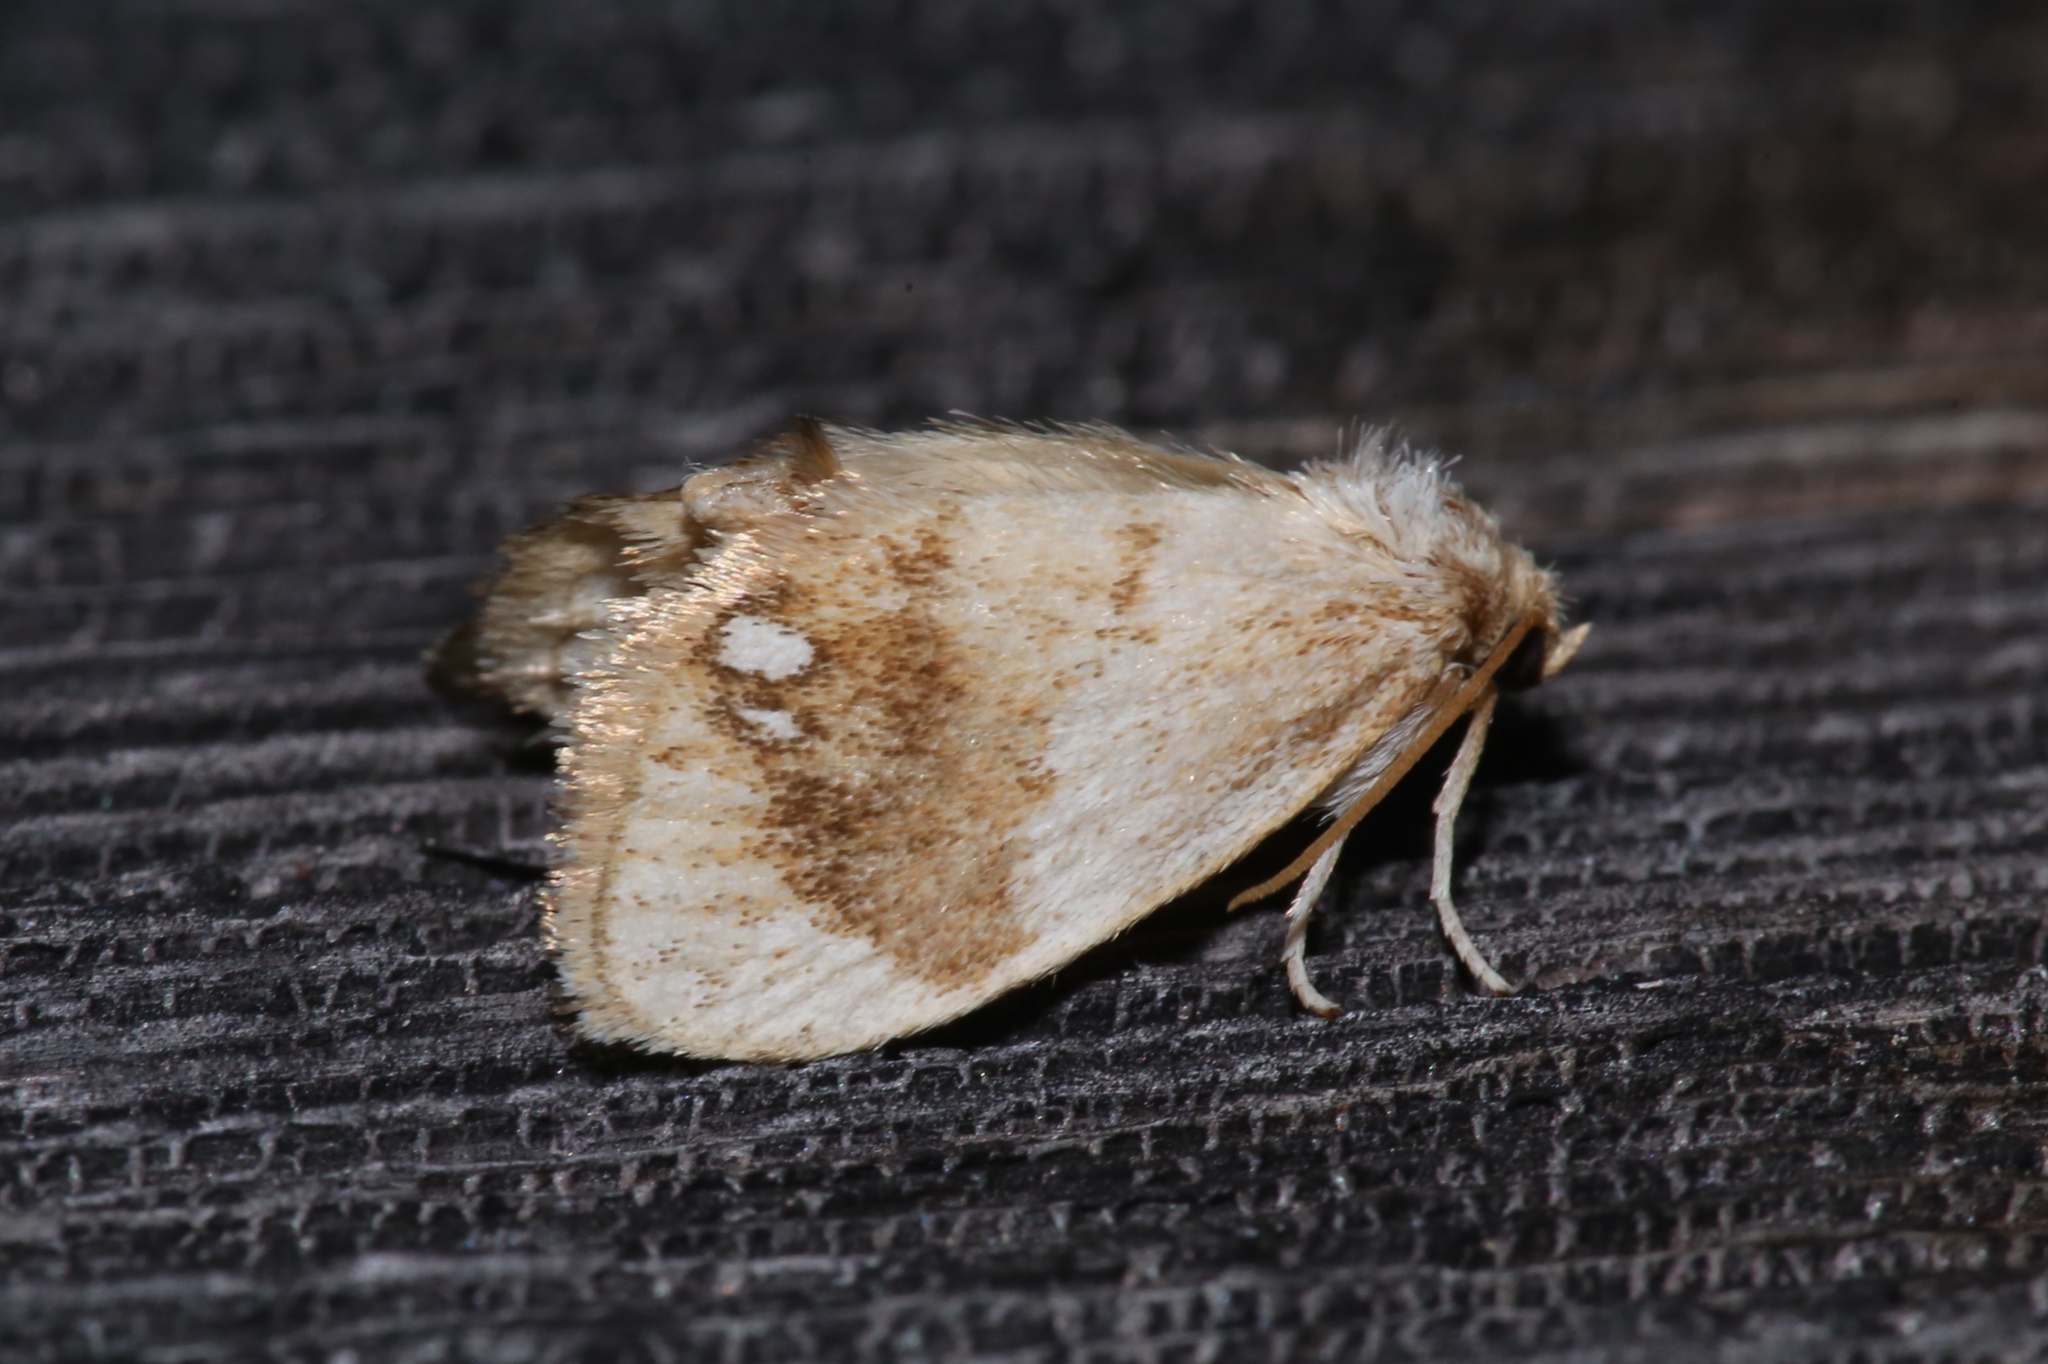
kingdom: Animalia
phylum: Arthropoda
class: Insecta
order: Lepidoptera
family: Limacodidae
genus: Packardia
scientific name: Packardia geminata
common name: Jeweled tailed slug moth
